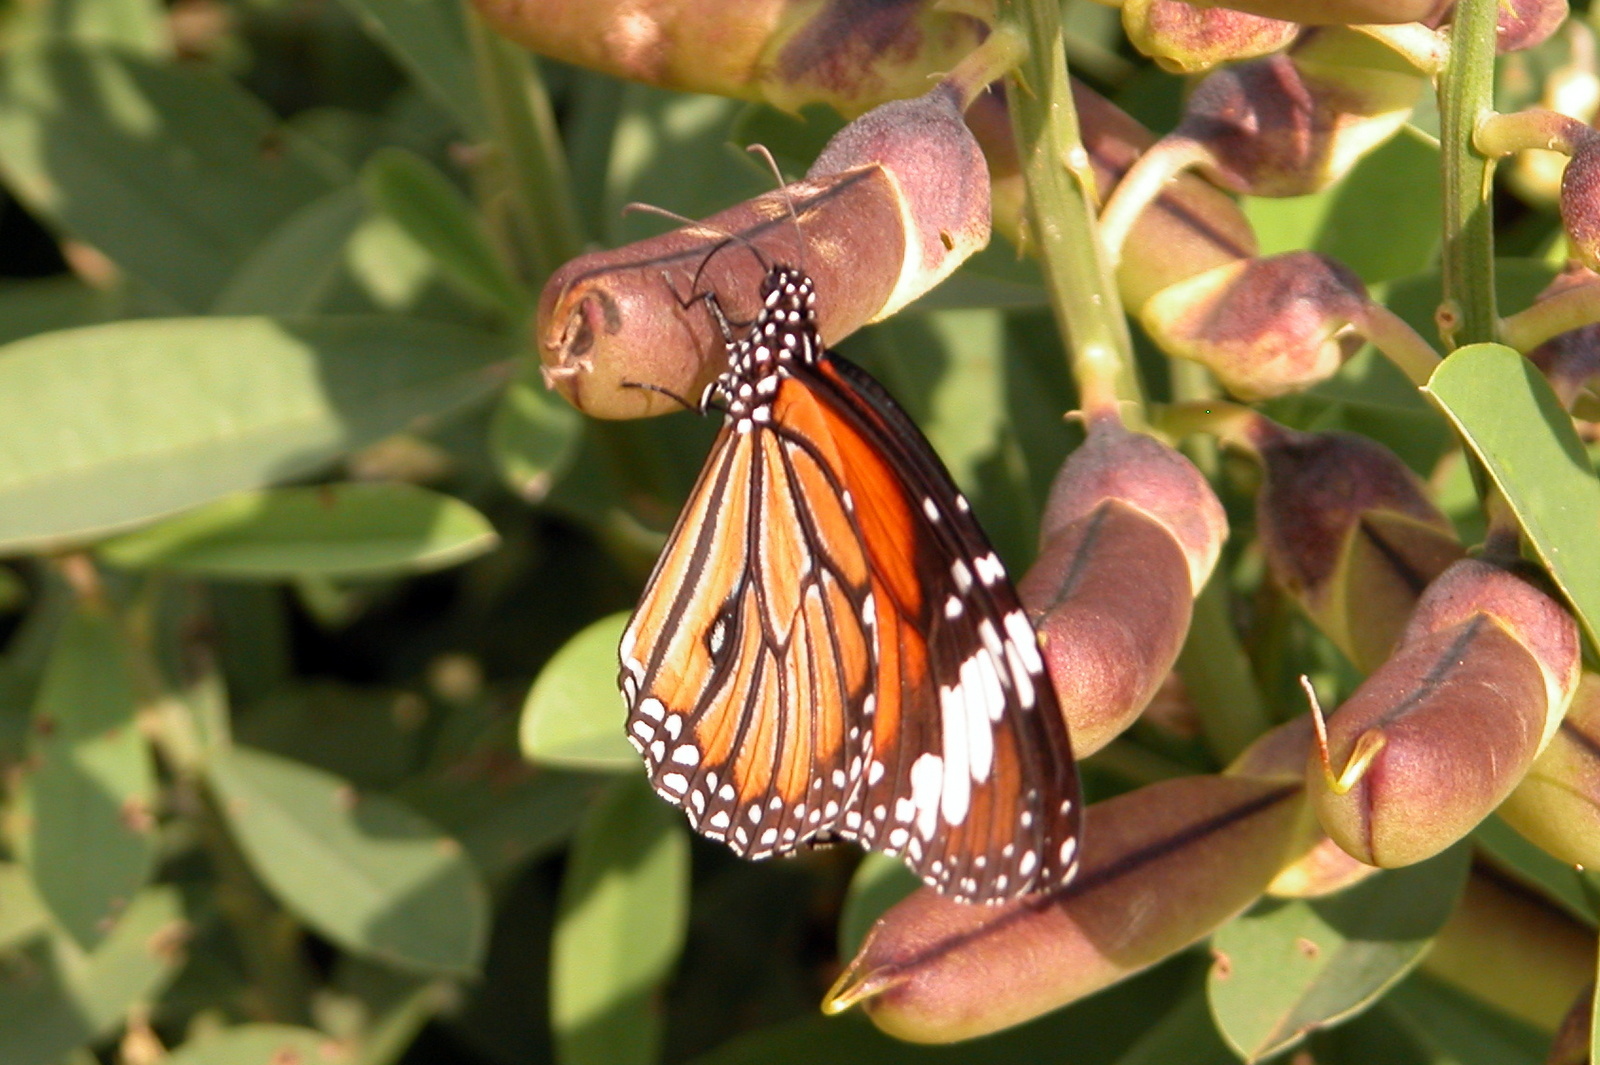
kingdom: Animalia
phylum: Arthropoda
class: Insecta
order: Lepidoptera
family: Nymphalidae
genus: Danaus
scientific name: Danaus genutia
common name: Common tiger butterfly
